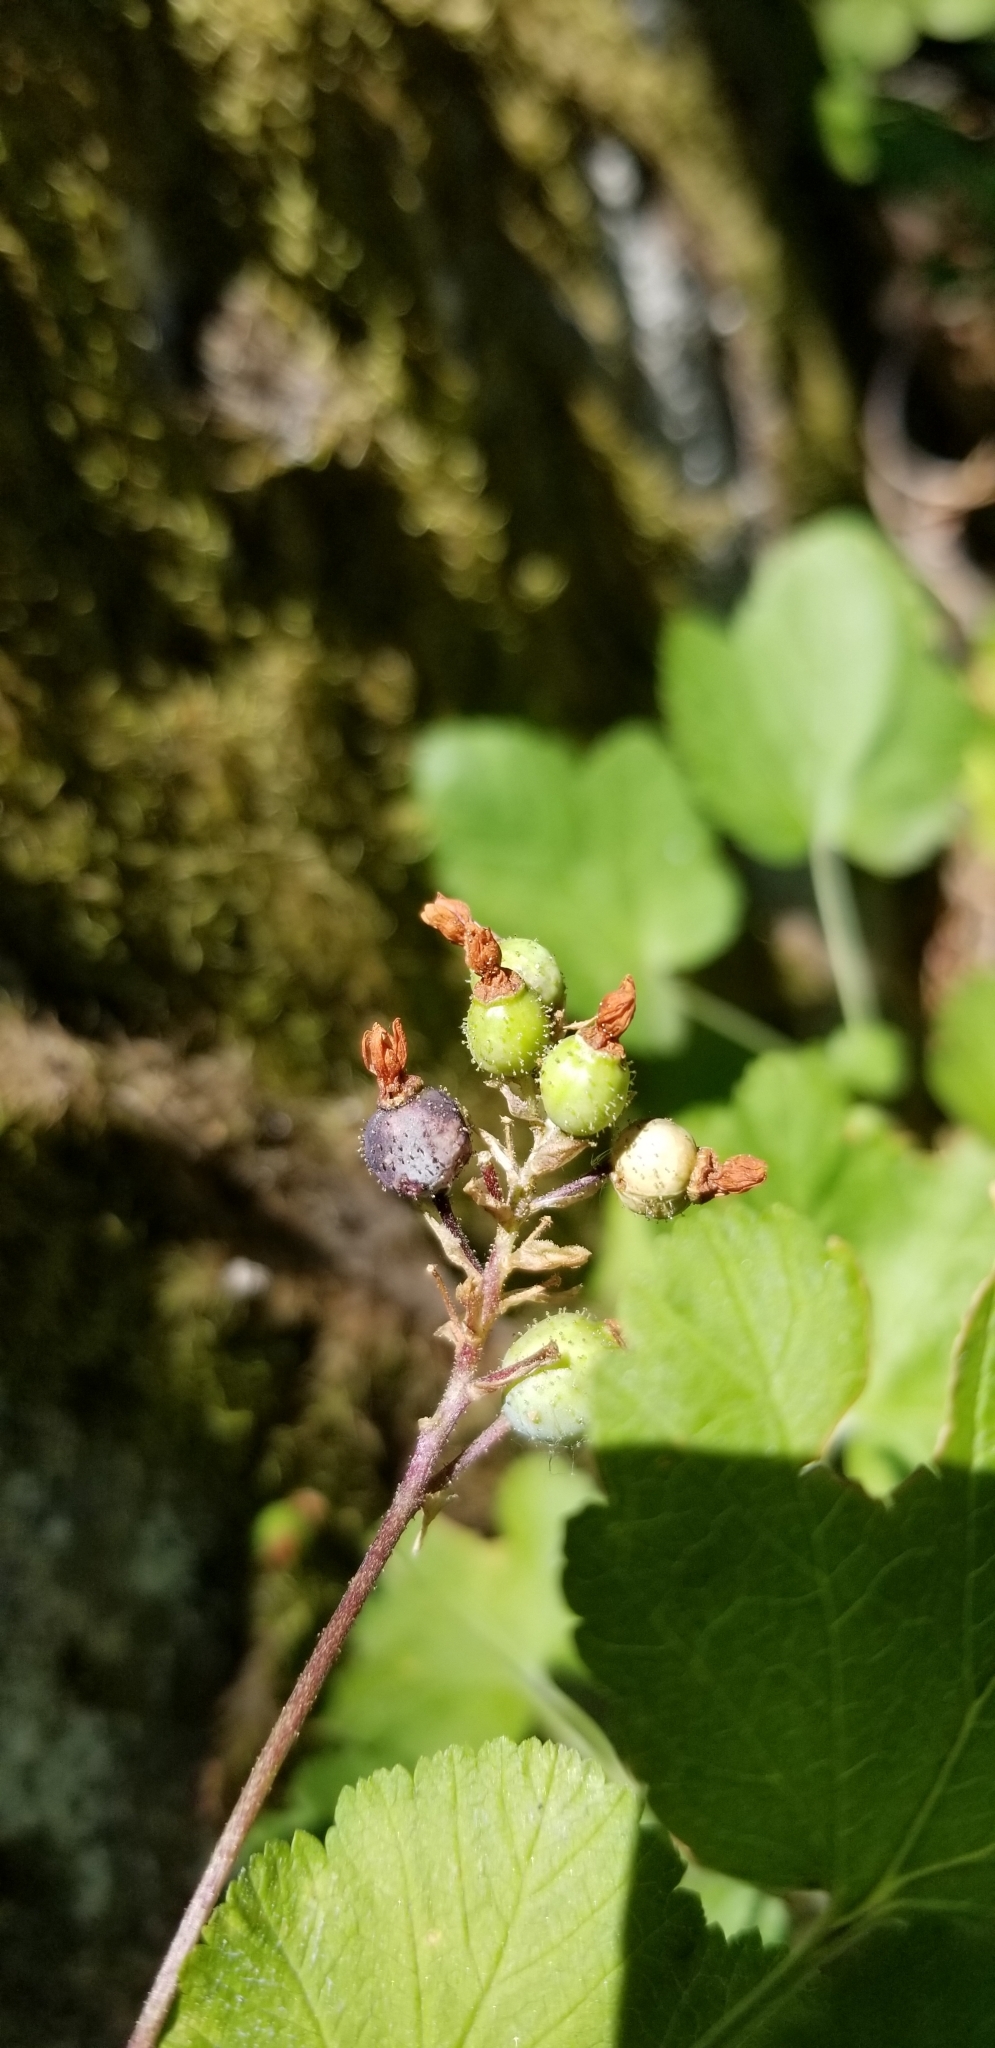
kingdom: Plantae
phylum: Tracheophyta
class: Magnoliopsida
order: Saxifragales
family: Grossulariaceae
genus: Ribes
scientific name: Ribes nevadense
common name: Mountain pink currant
